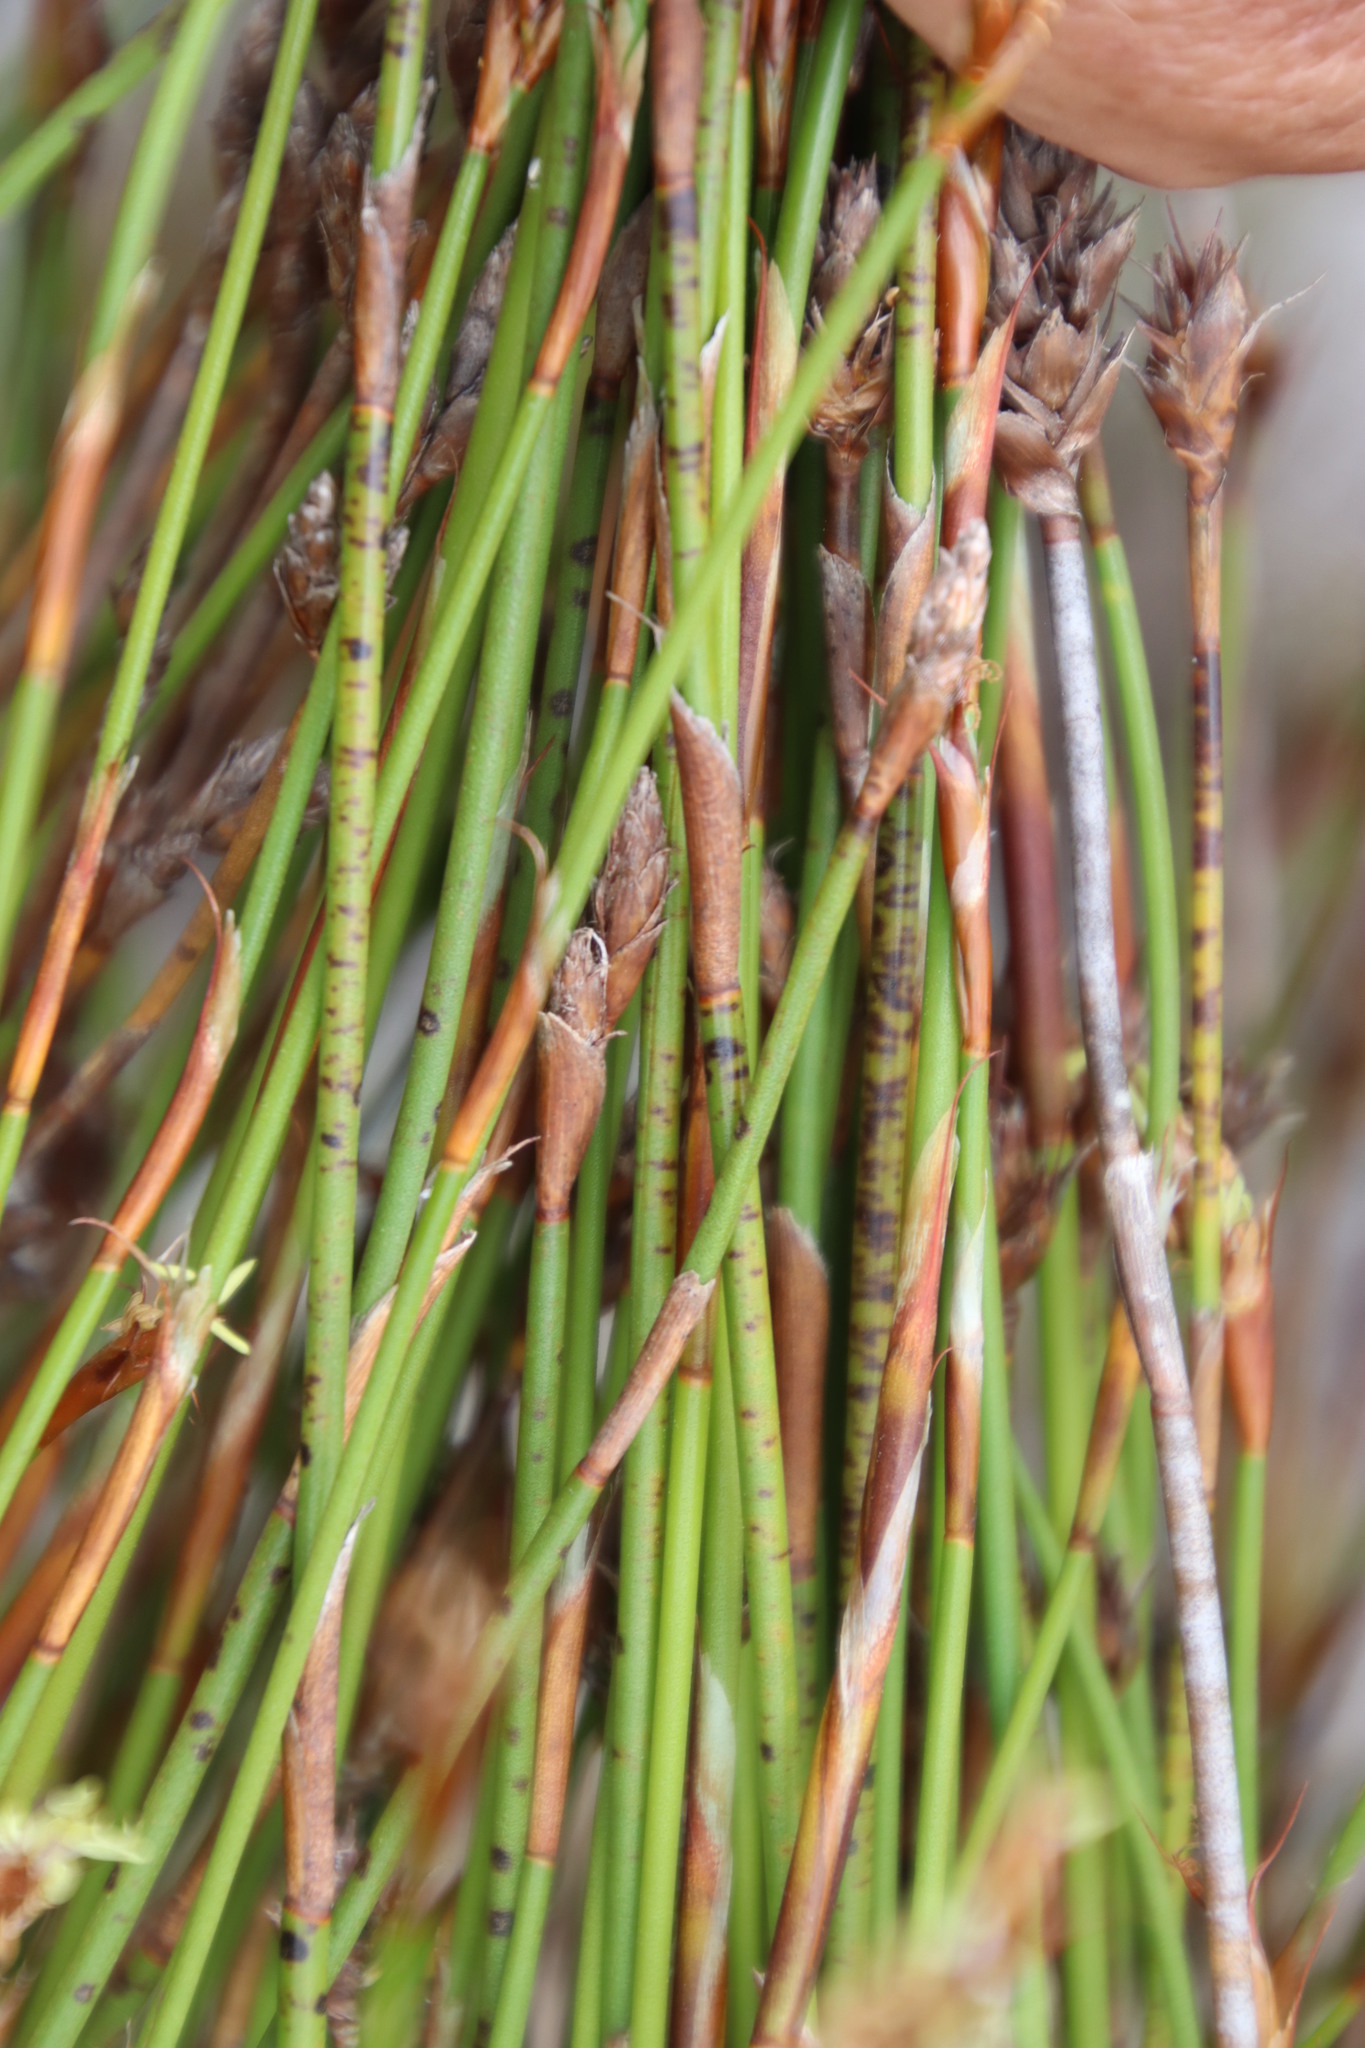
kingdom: Plantae
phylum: Tracheophyta
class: Liliopsida
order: Poales
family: Restionaceae
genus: Restio
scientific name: Restio capensis
